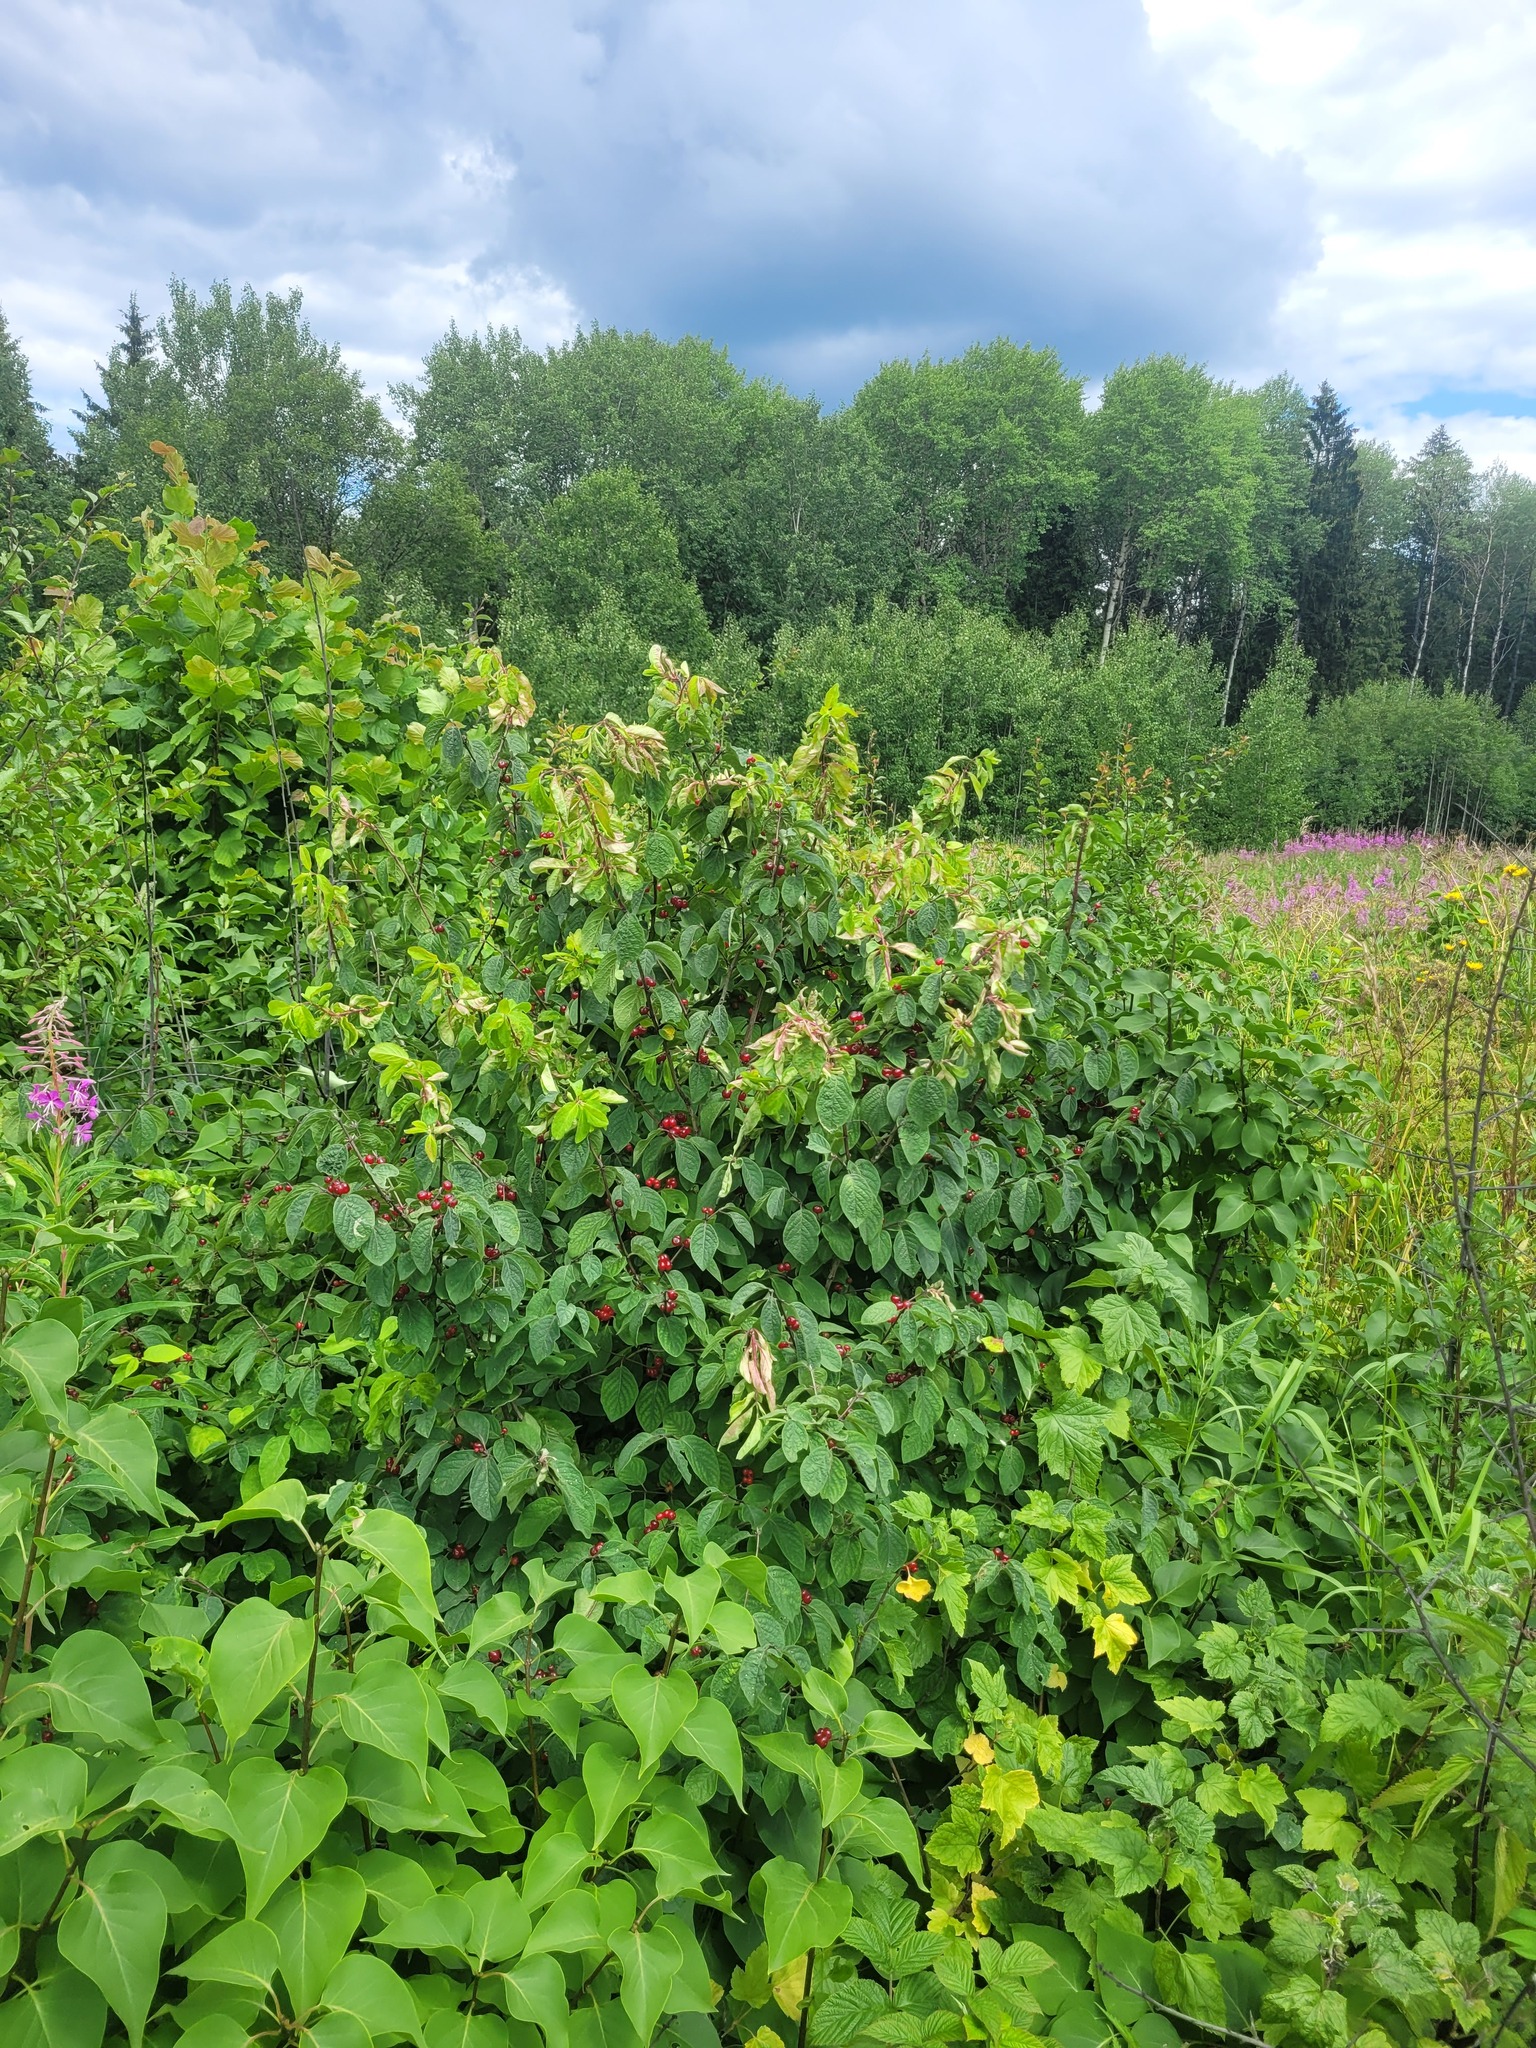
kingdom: Plantae
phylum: Tracheophyta
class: Magnoliopsida
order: Dipsacales
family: Caprifoliaceae
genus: Lonicera
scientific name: Lonicera xylosteum
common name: Fly honeysuckle
